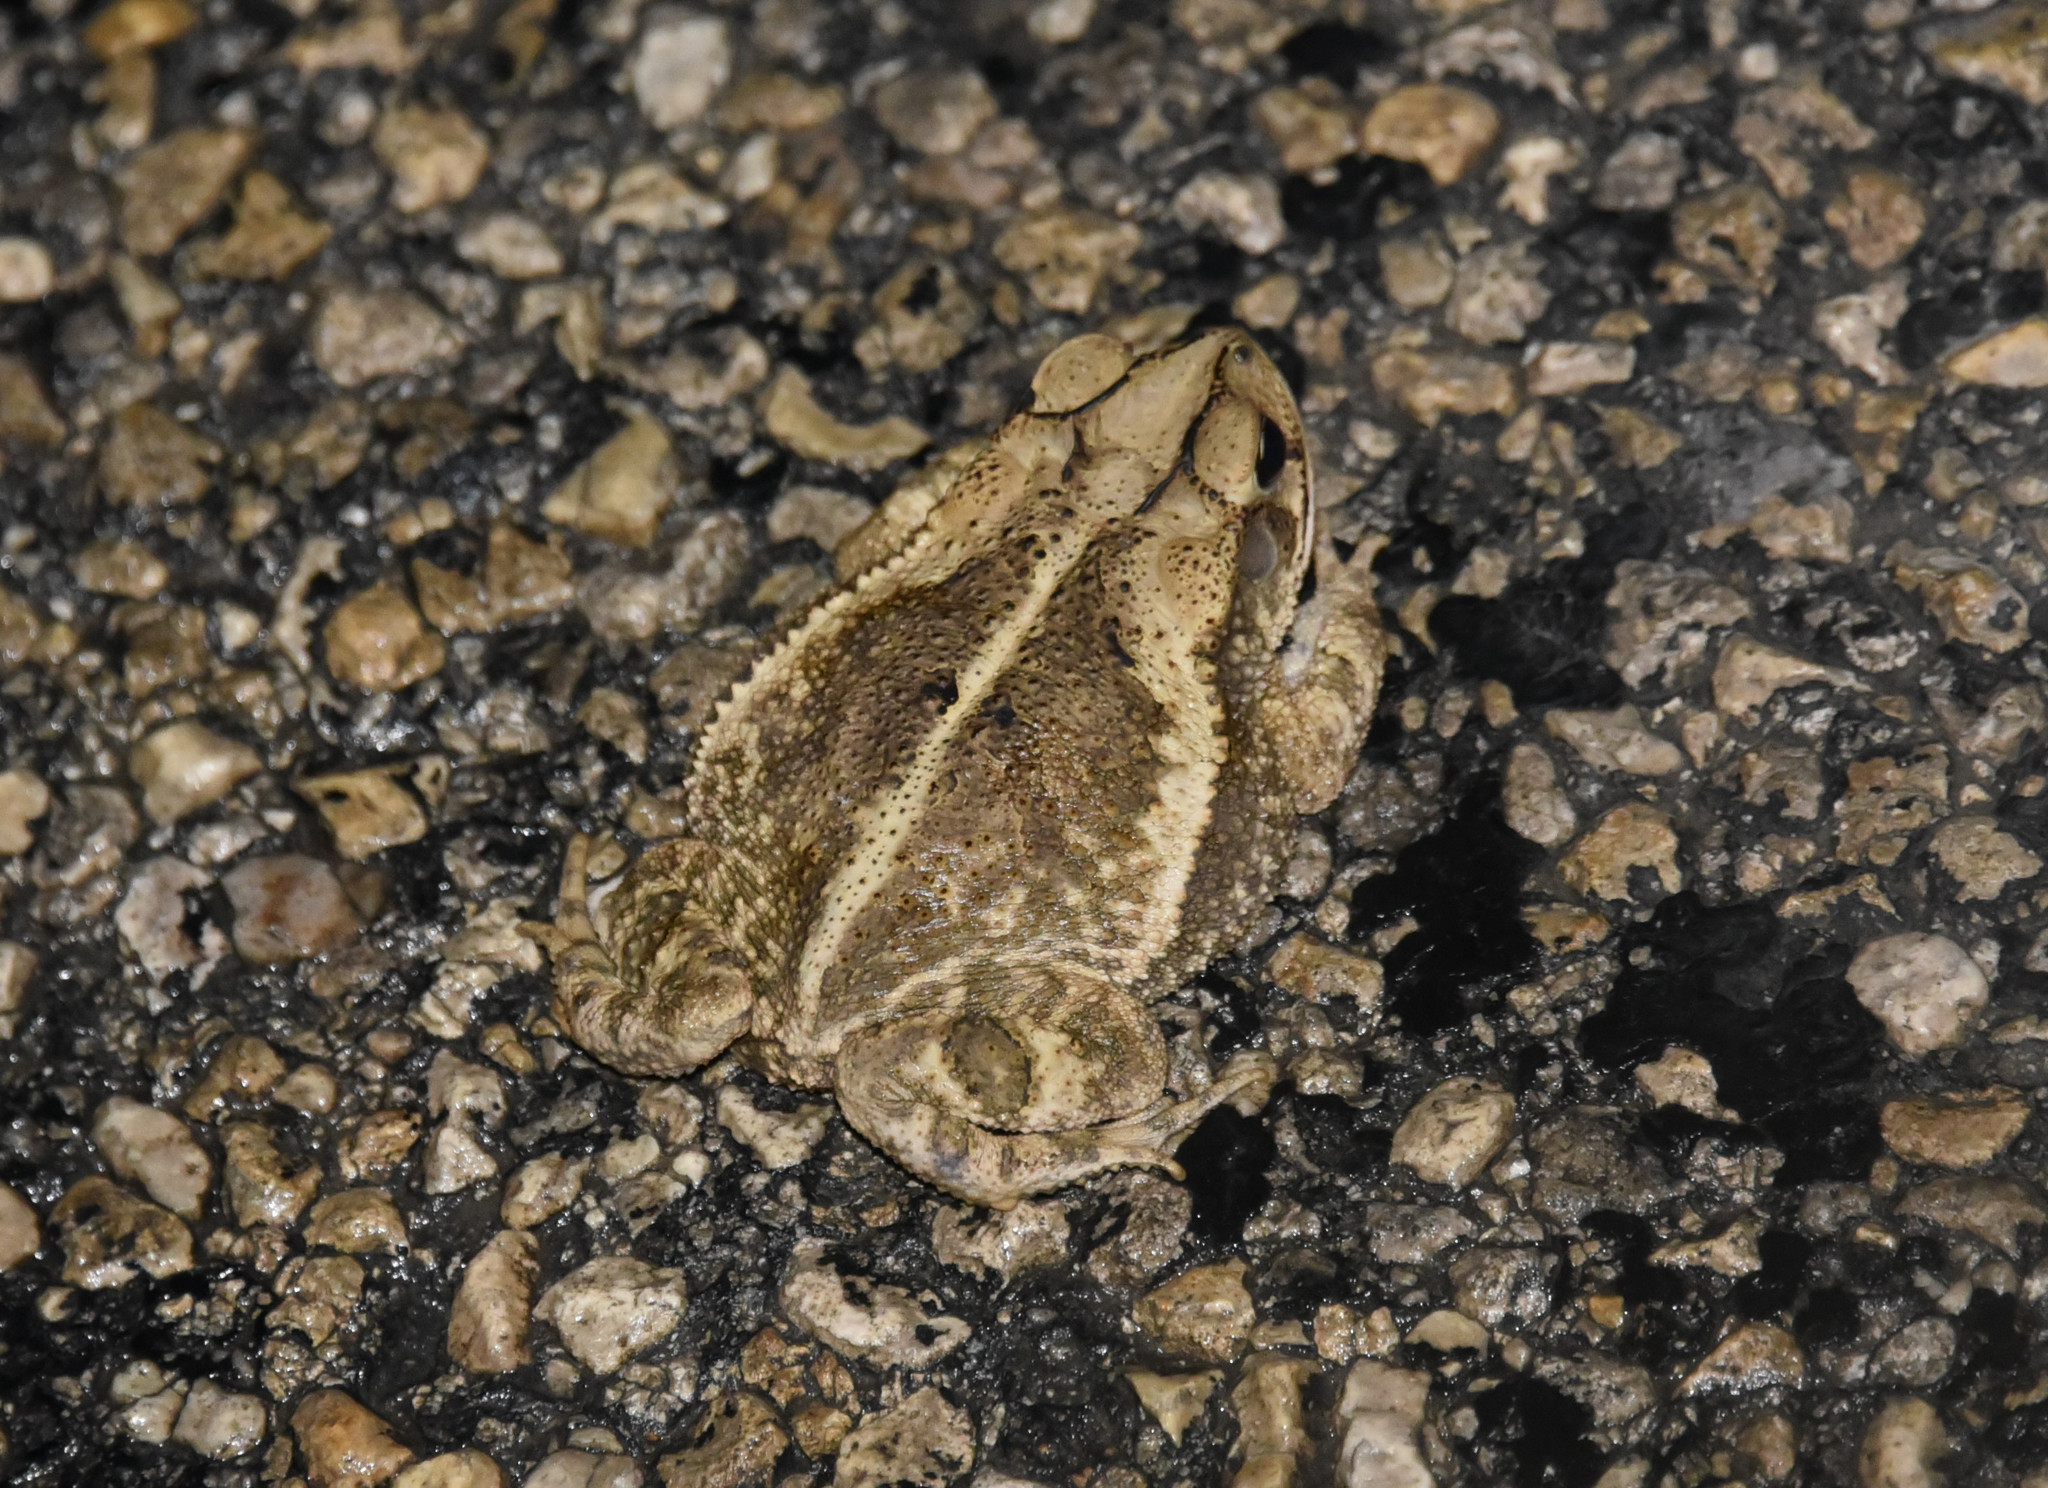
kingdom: Animalia
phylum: Chordata
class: Amphibia
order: Anura
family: Bufonidae
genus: Incilius
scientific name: Incilius nebulifer
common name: Gulf coast toad
